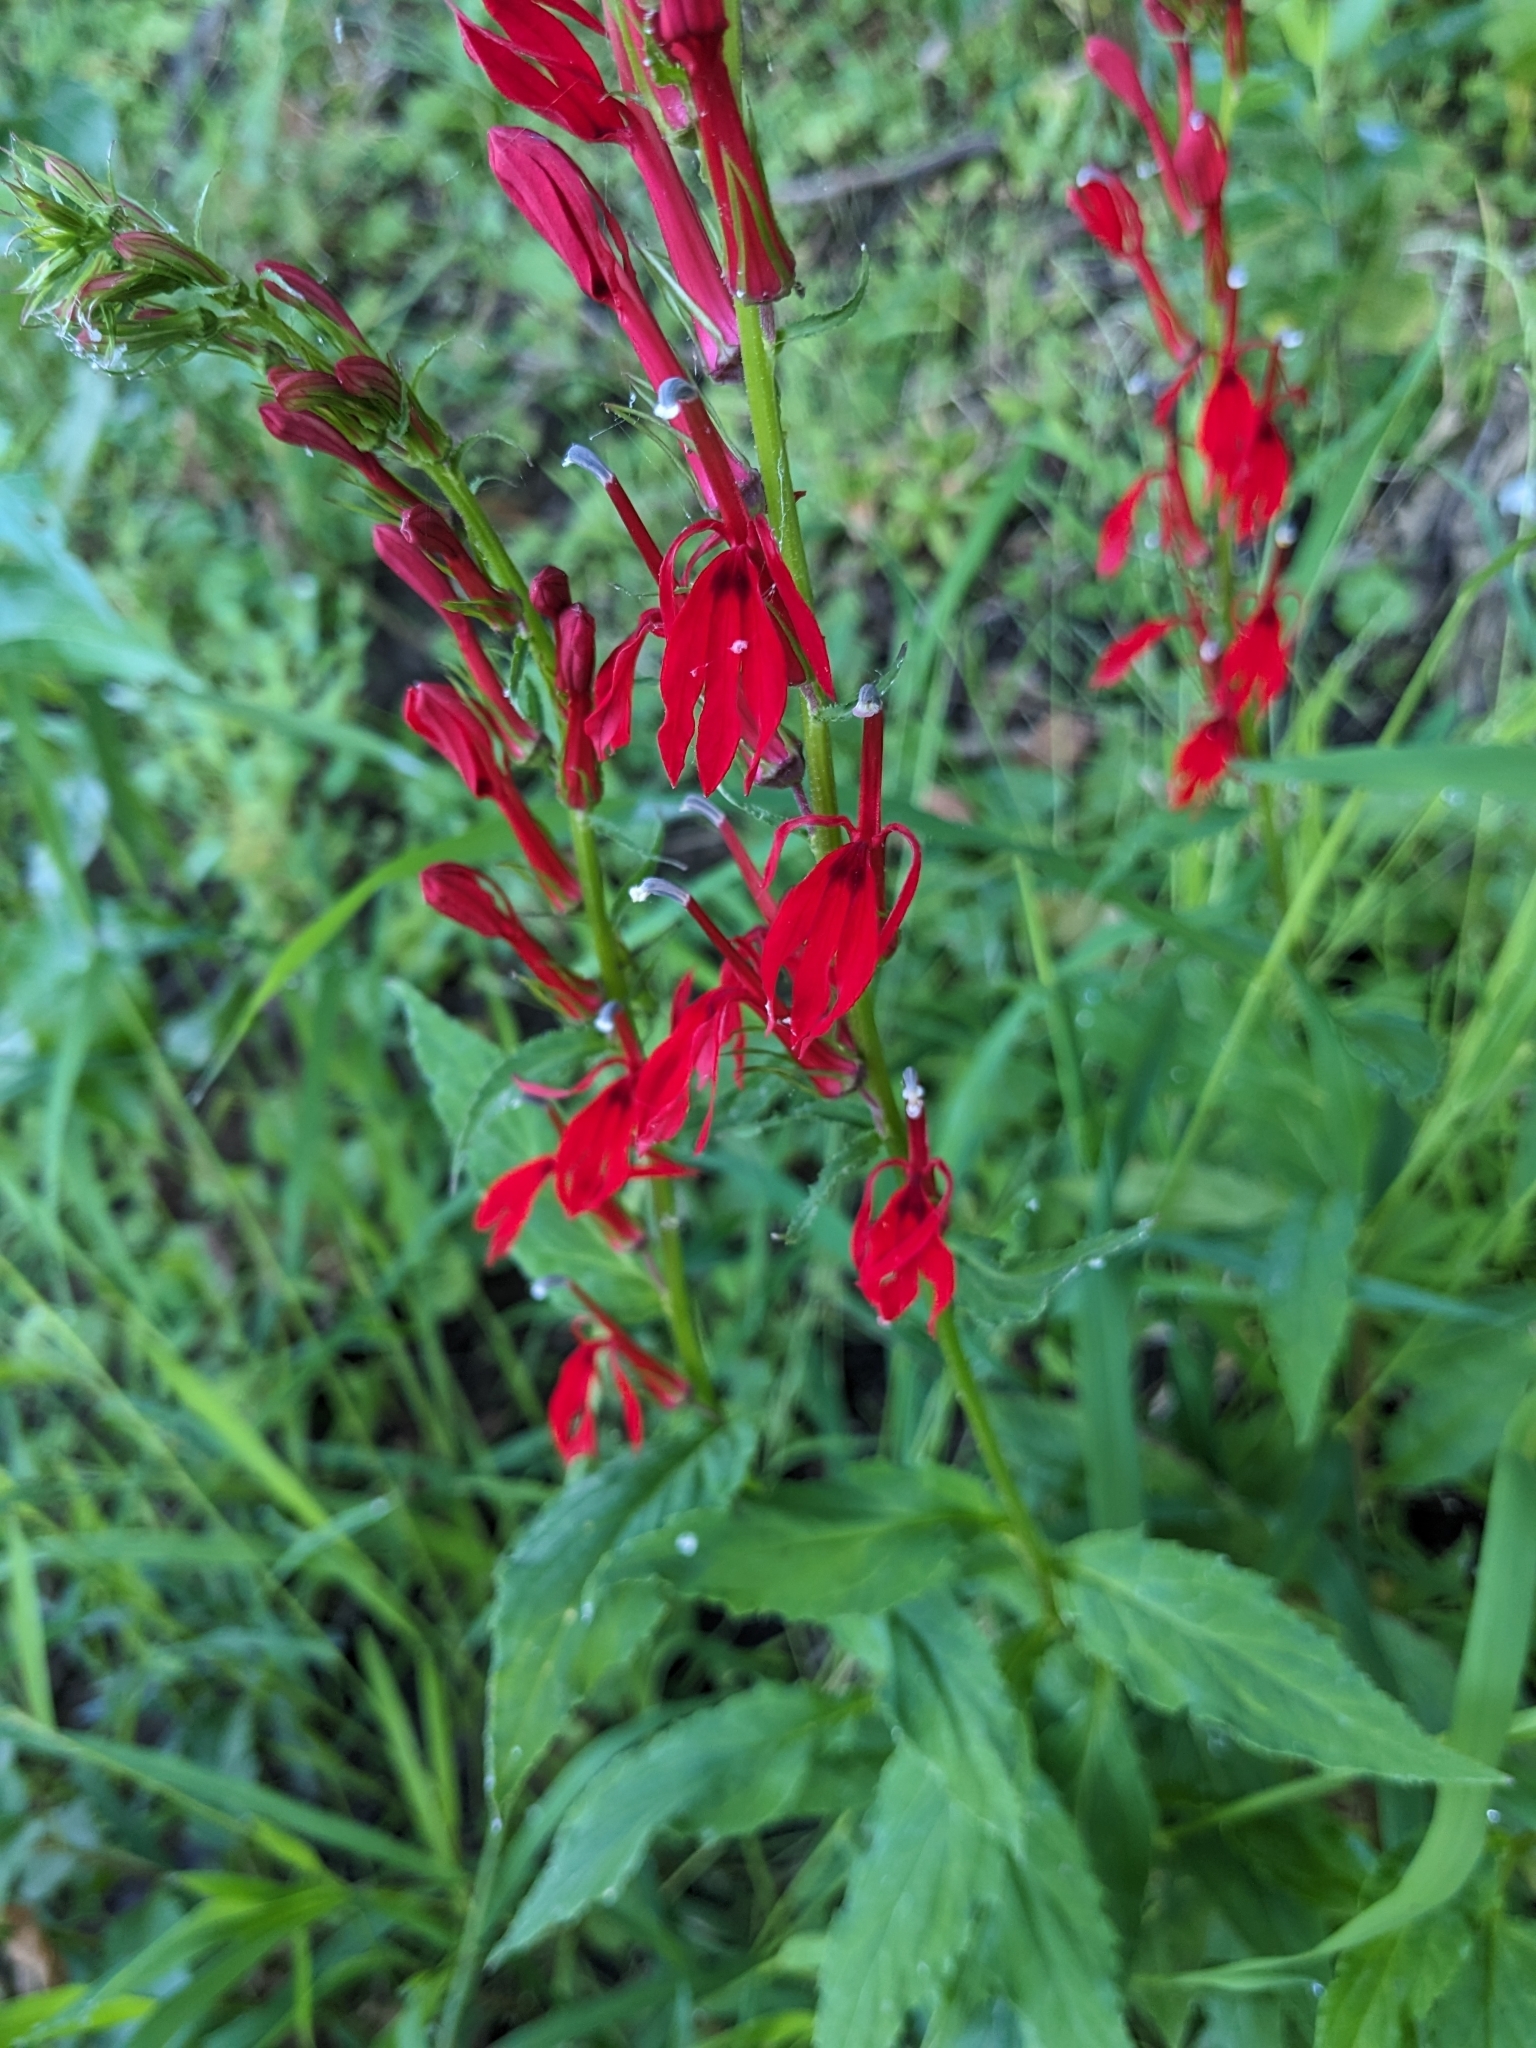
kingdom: Plantae
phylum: Tracheophyta
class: Magnoliopsida
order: Asterales
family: Campanulaceae
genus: Lobelia
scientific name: Lobelia cardinalis
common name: Cardinal flower
